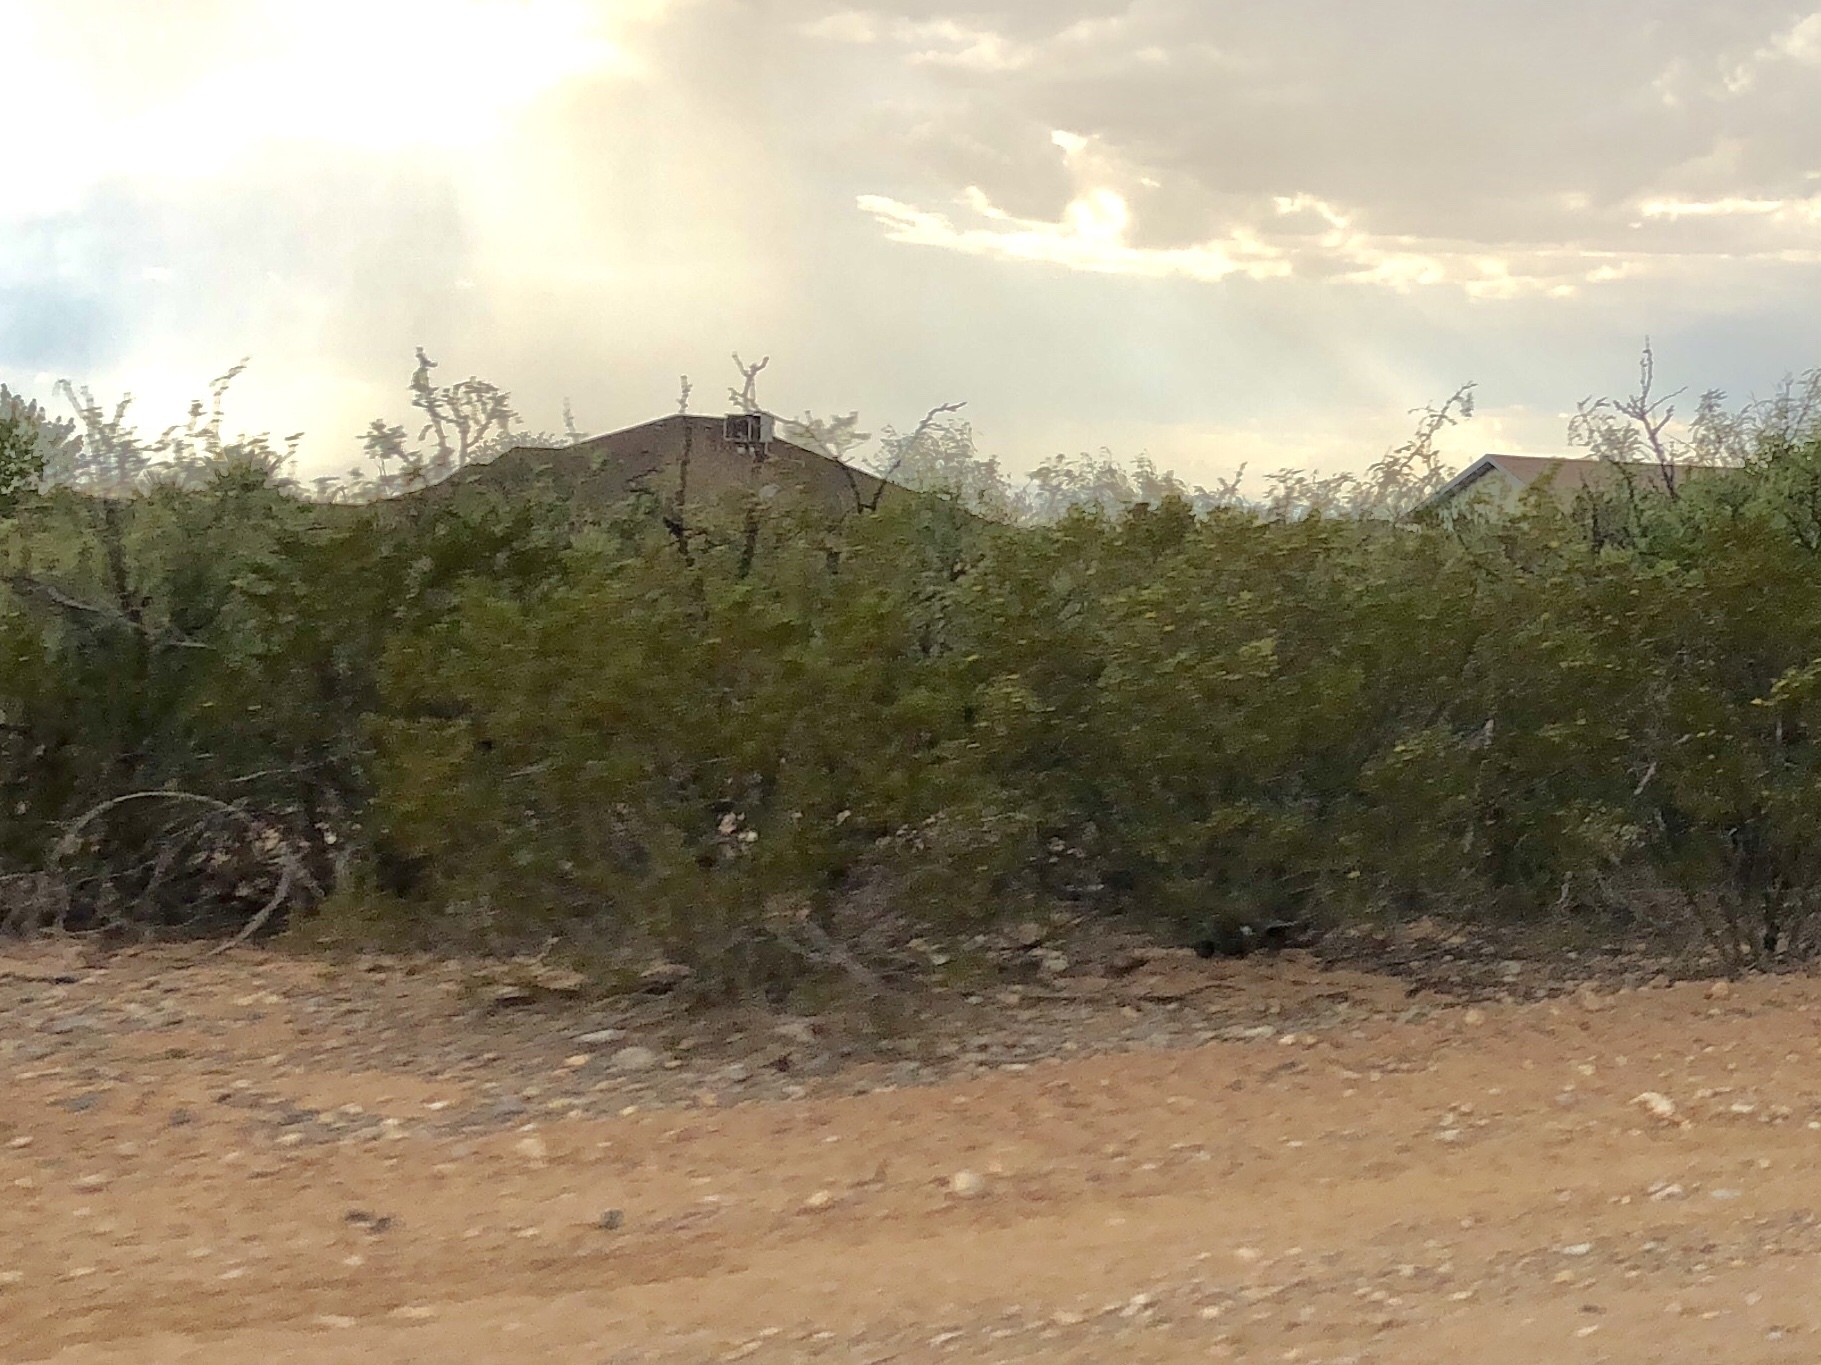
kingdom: Plantae
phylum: Tracheophyta
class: Magnoliopsida
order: Zygophyllales
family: Zygophyllaceae
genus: Larrea
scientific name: Larrea tridentata
